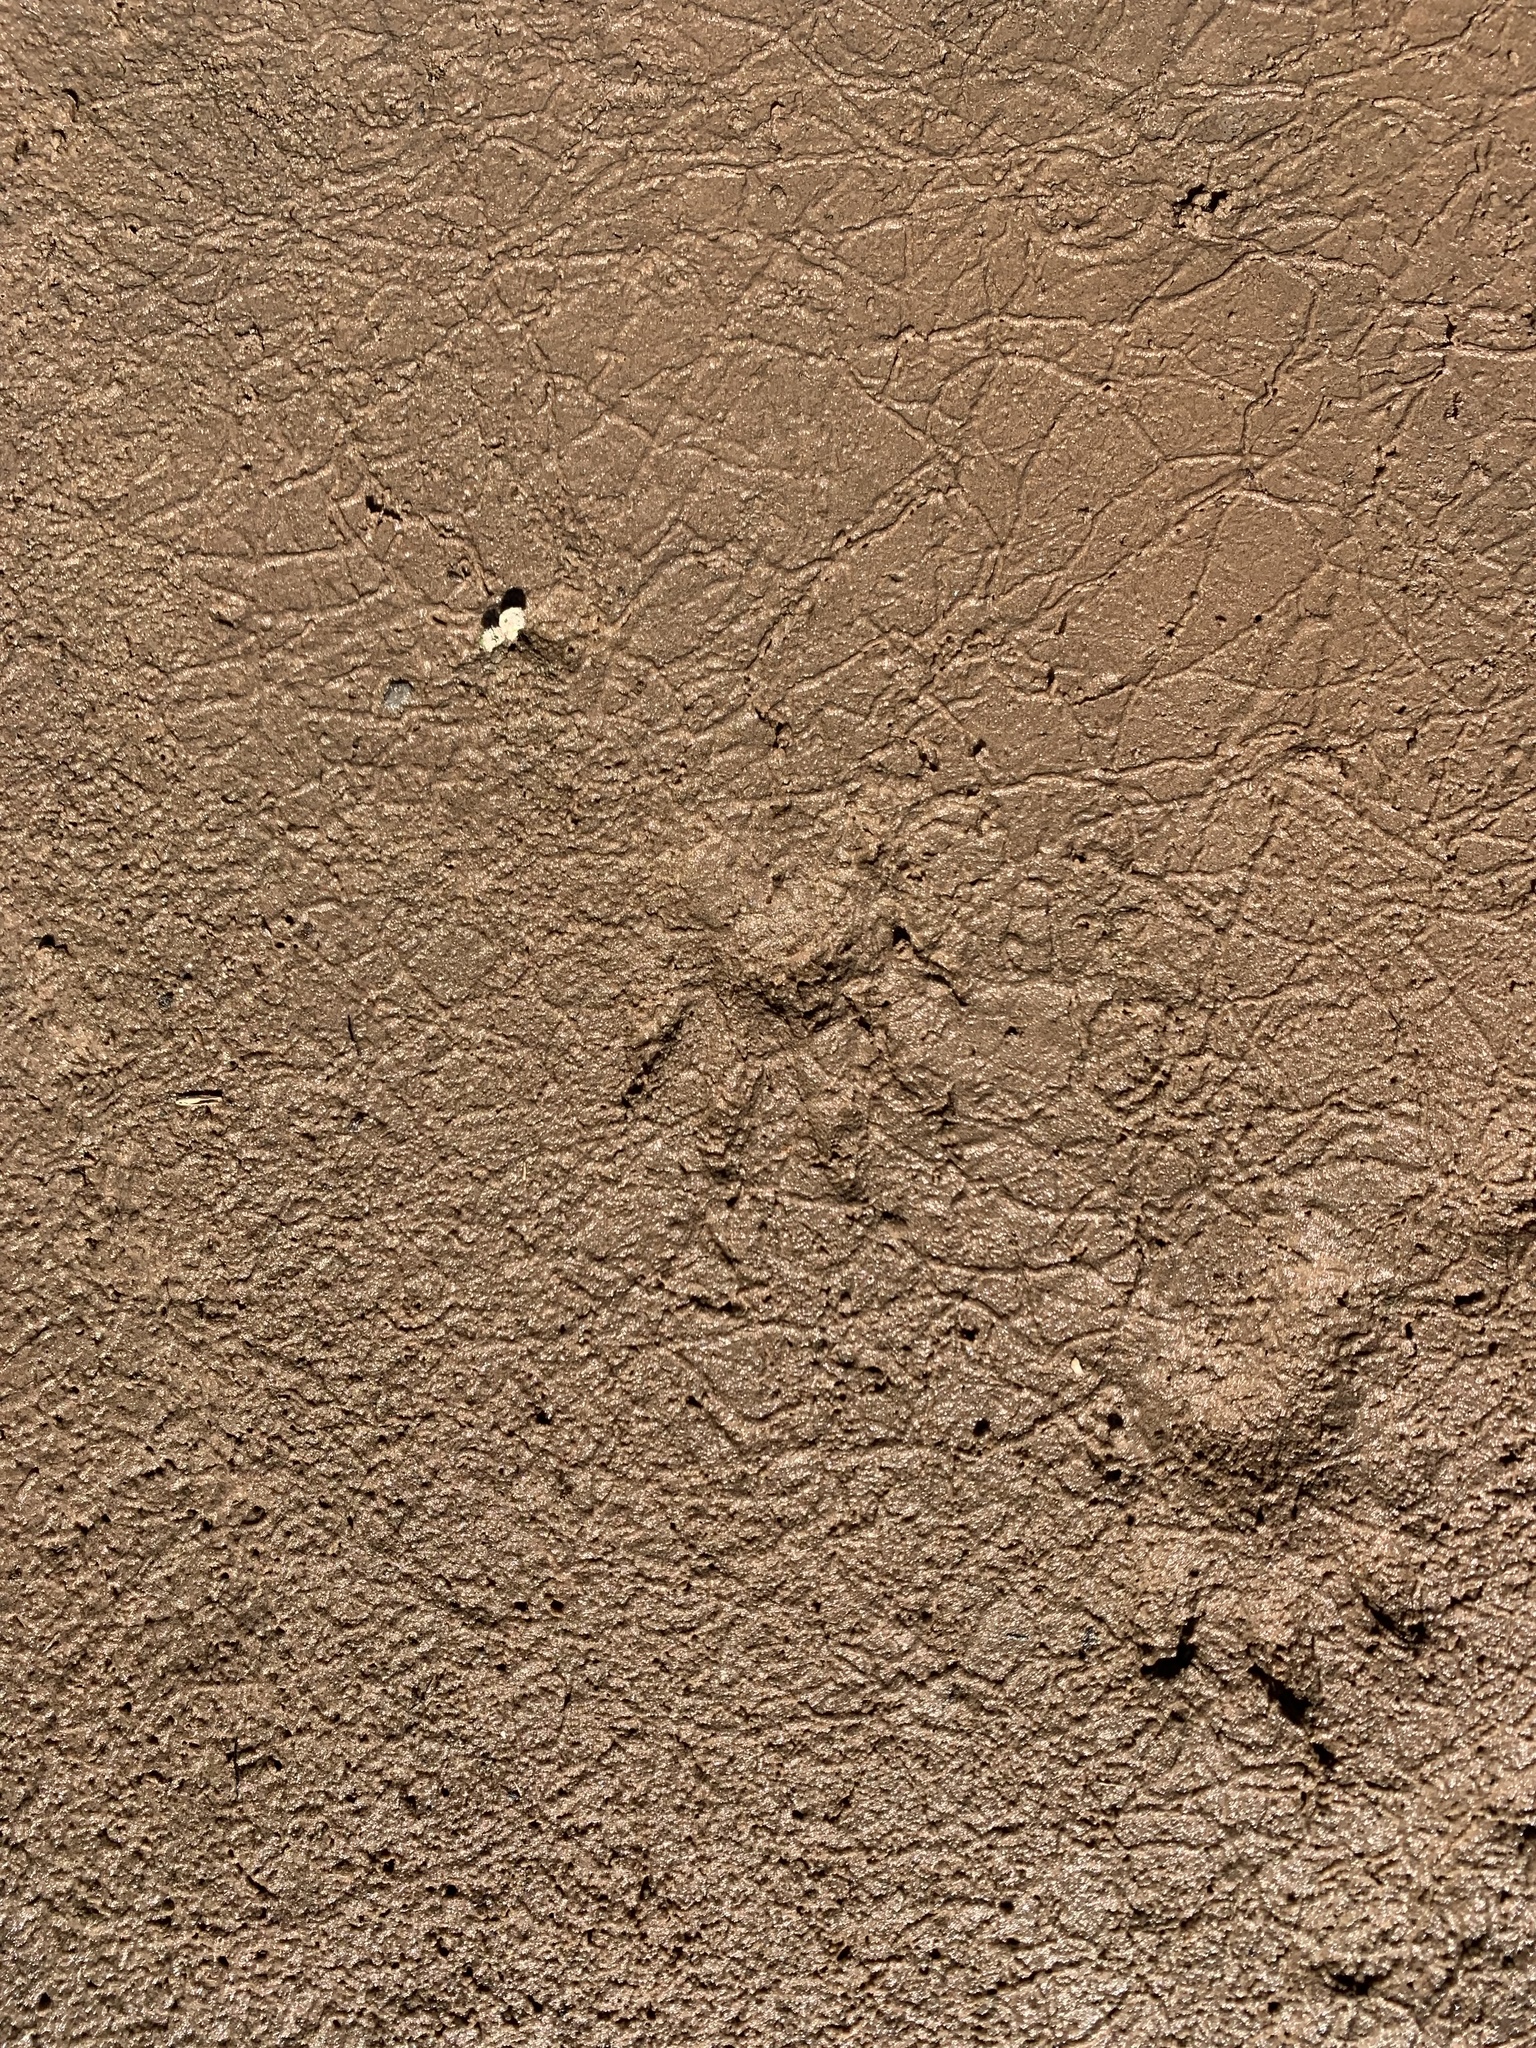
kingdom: Animalia
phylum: Chordata
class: Mammalia
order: Carnivora
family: Procyonidae
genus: Procyon
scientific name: Procyon cancrivorus
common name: Crab-eating raccoon
